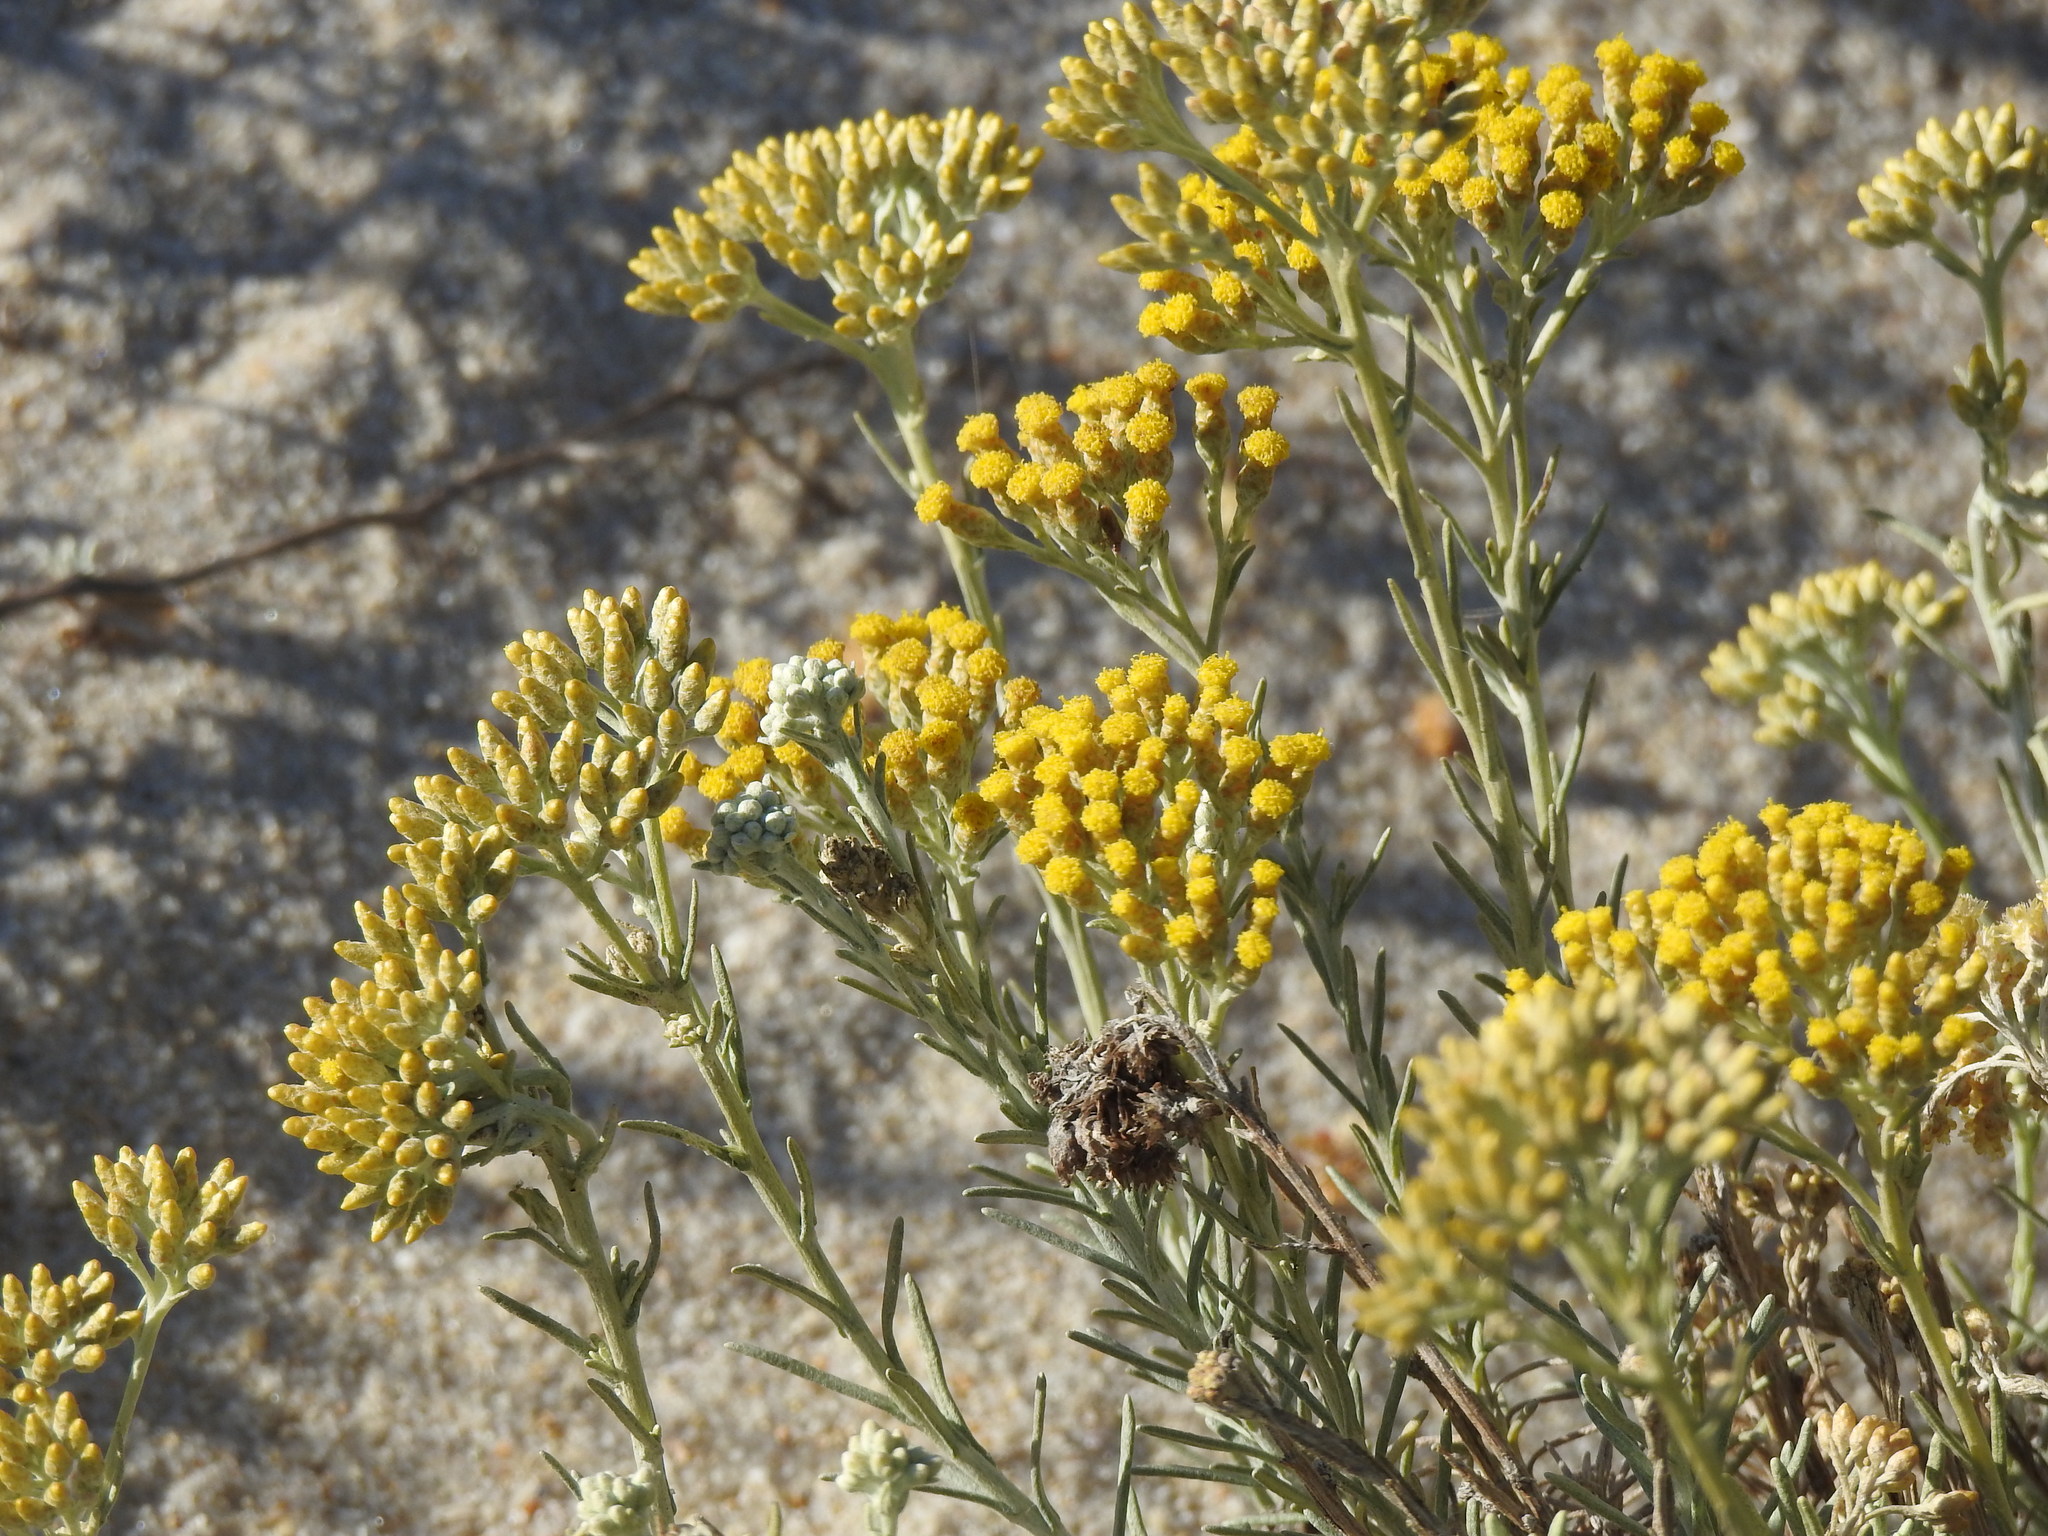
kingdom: Plantae
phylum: Tracheophyta
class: Magnoliopsida
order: Asterales
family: Asteraceae
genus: Helichrysum
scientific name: Helichrysum serotinum
